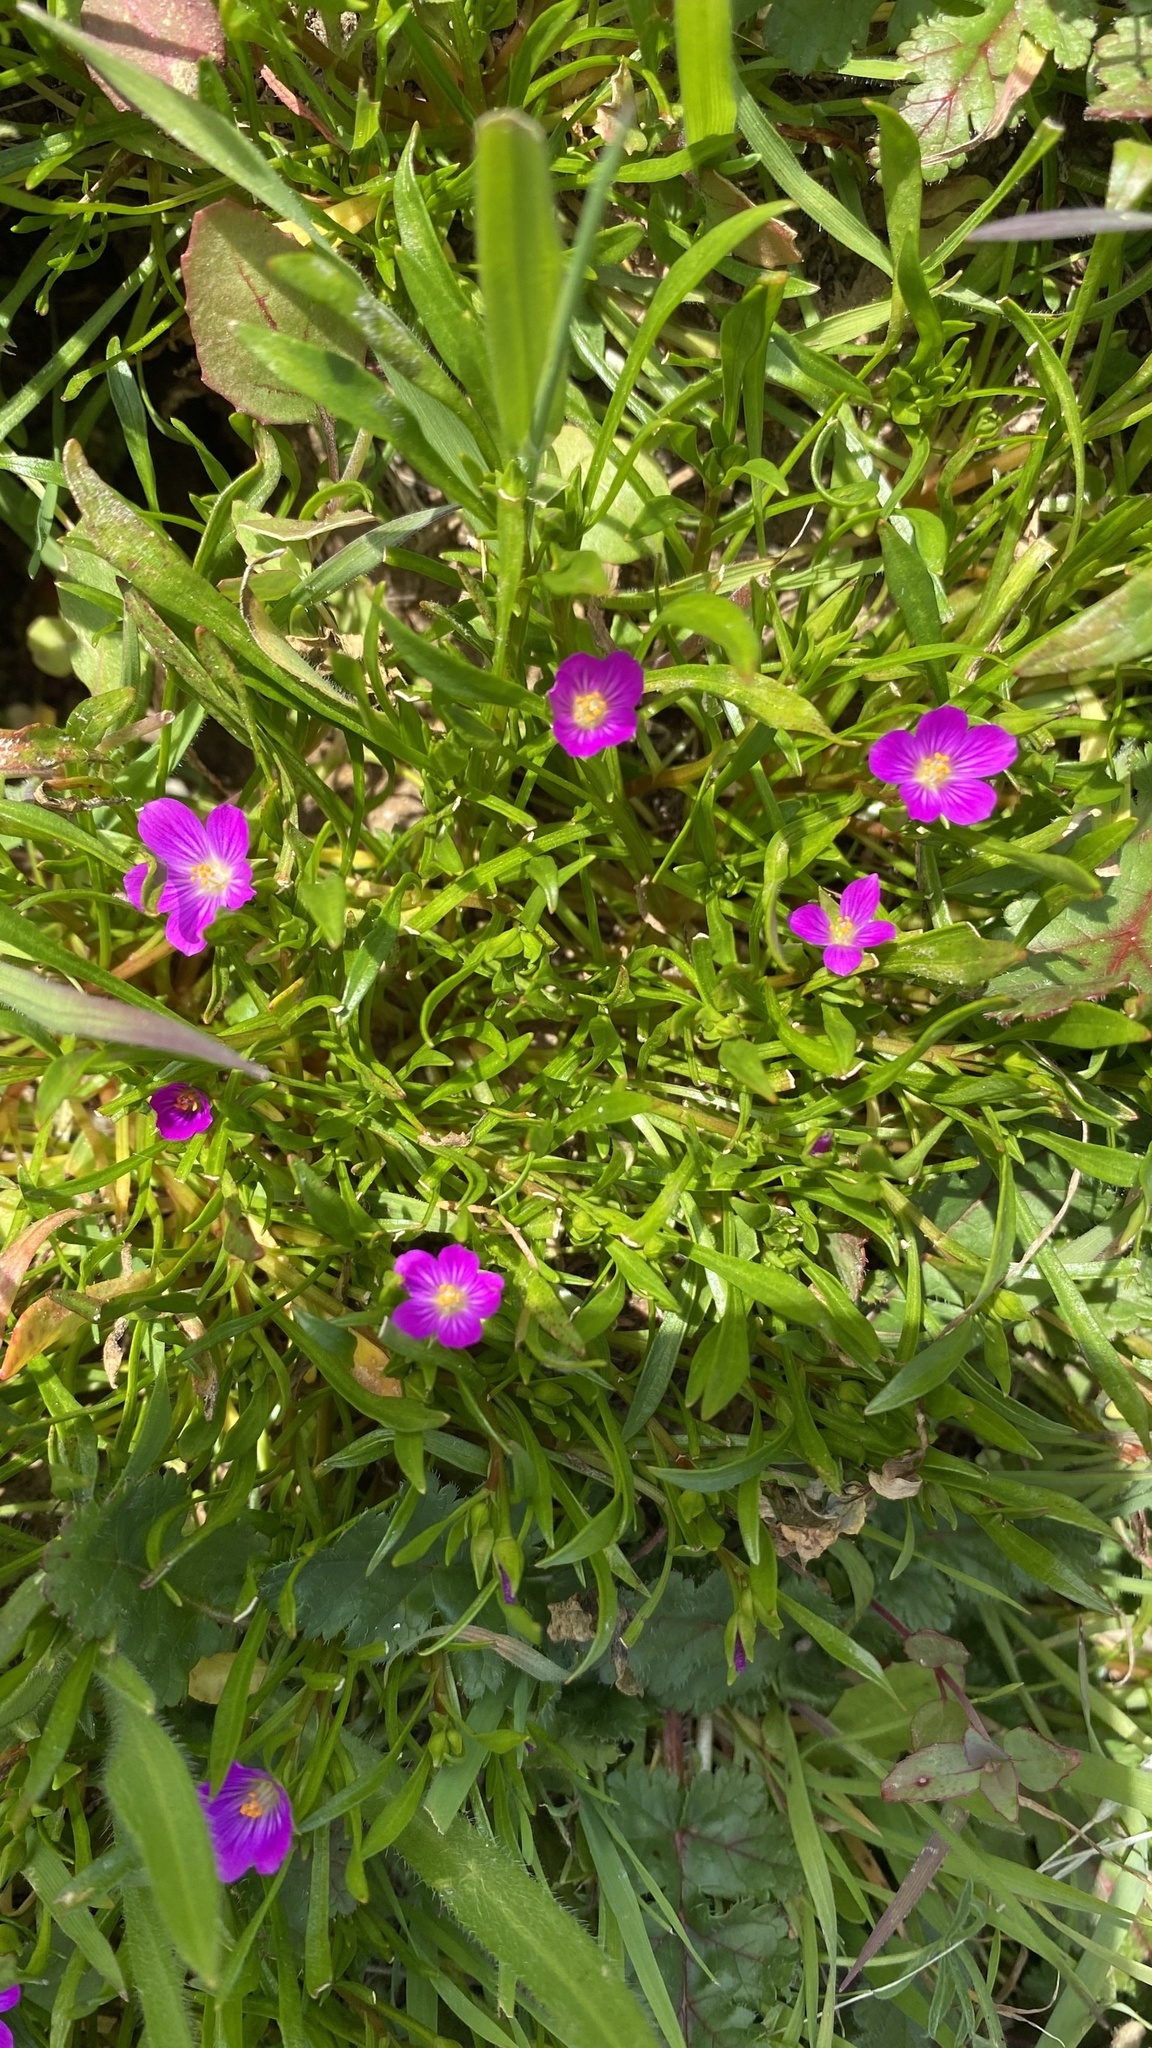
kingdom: Plantae
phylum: Tracheophyta
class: Magnoliopsida
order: Caryophyllales
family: Montiaceae
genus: Calandrinia
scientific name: Calandrinia menziesii
